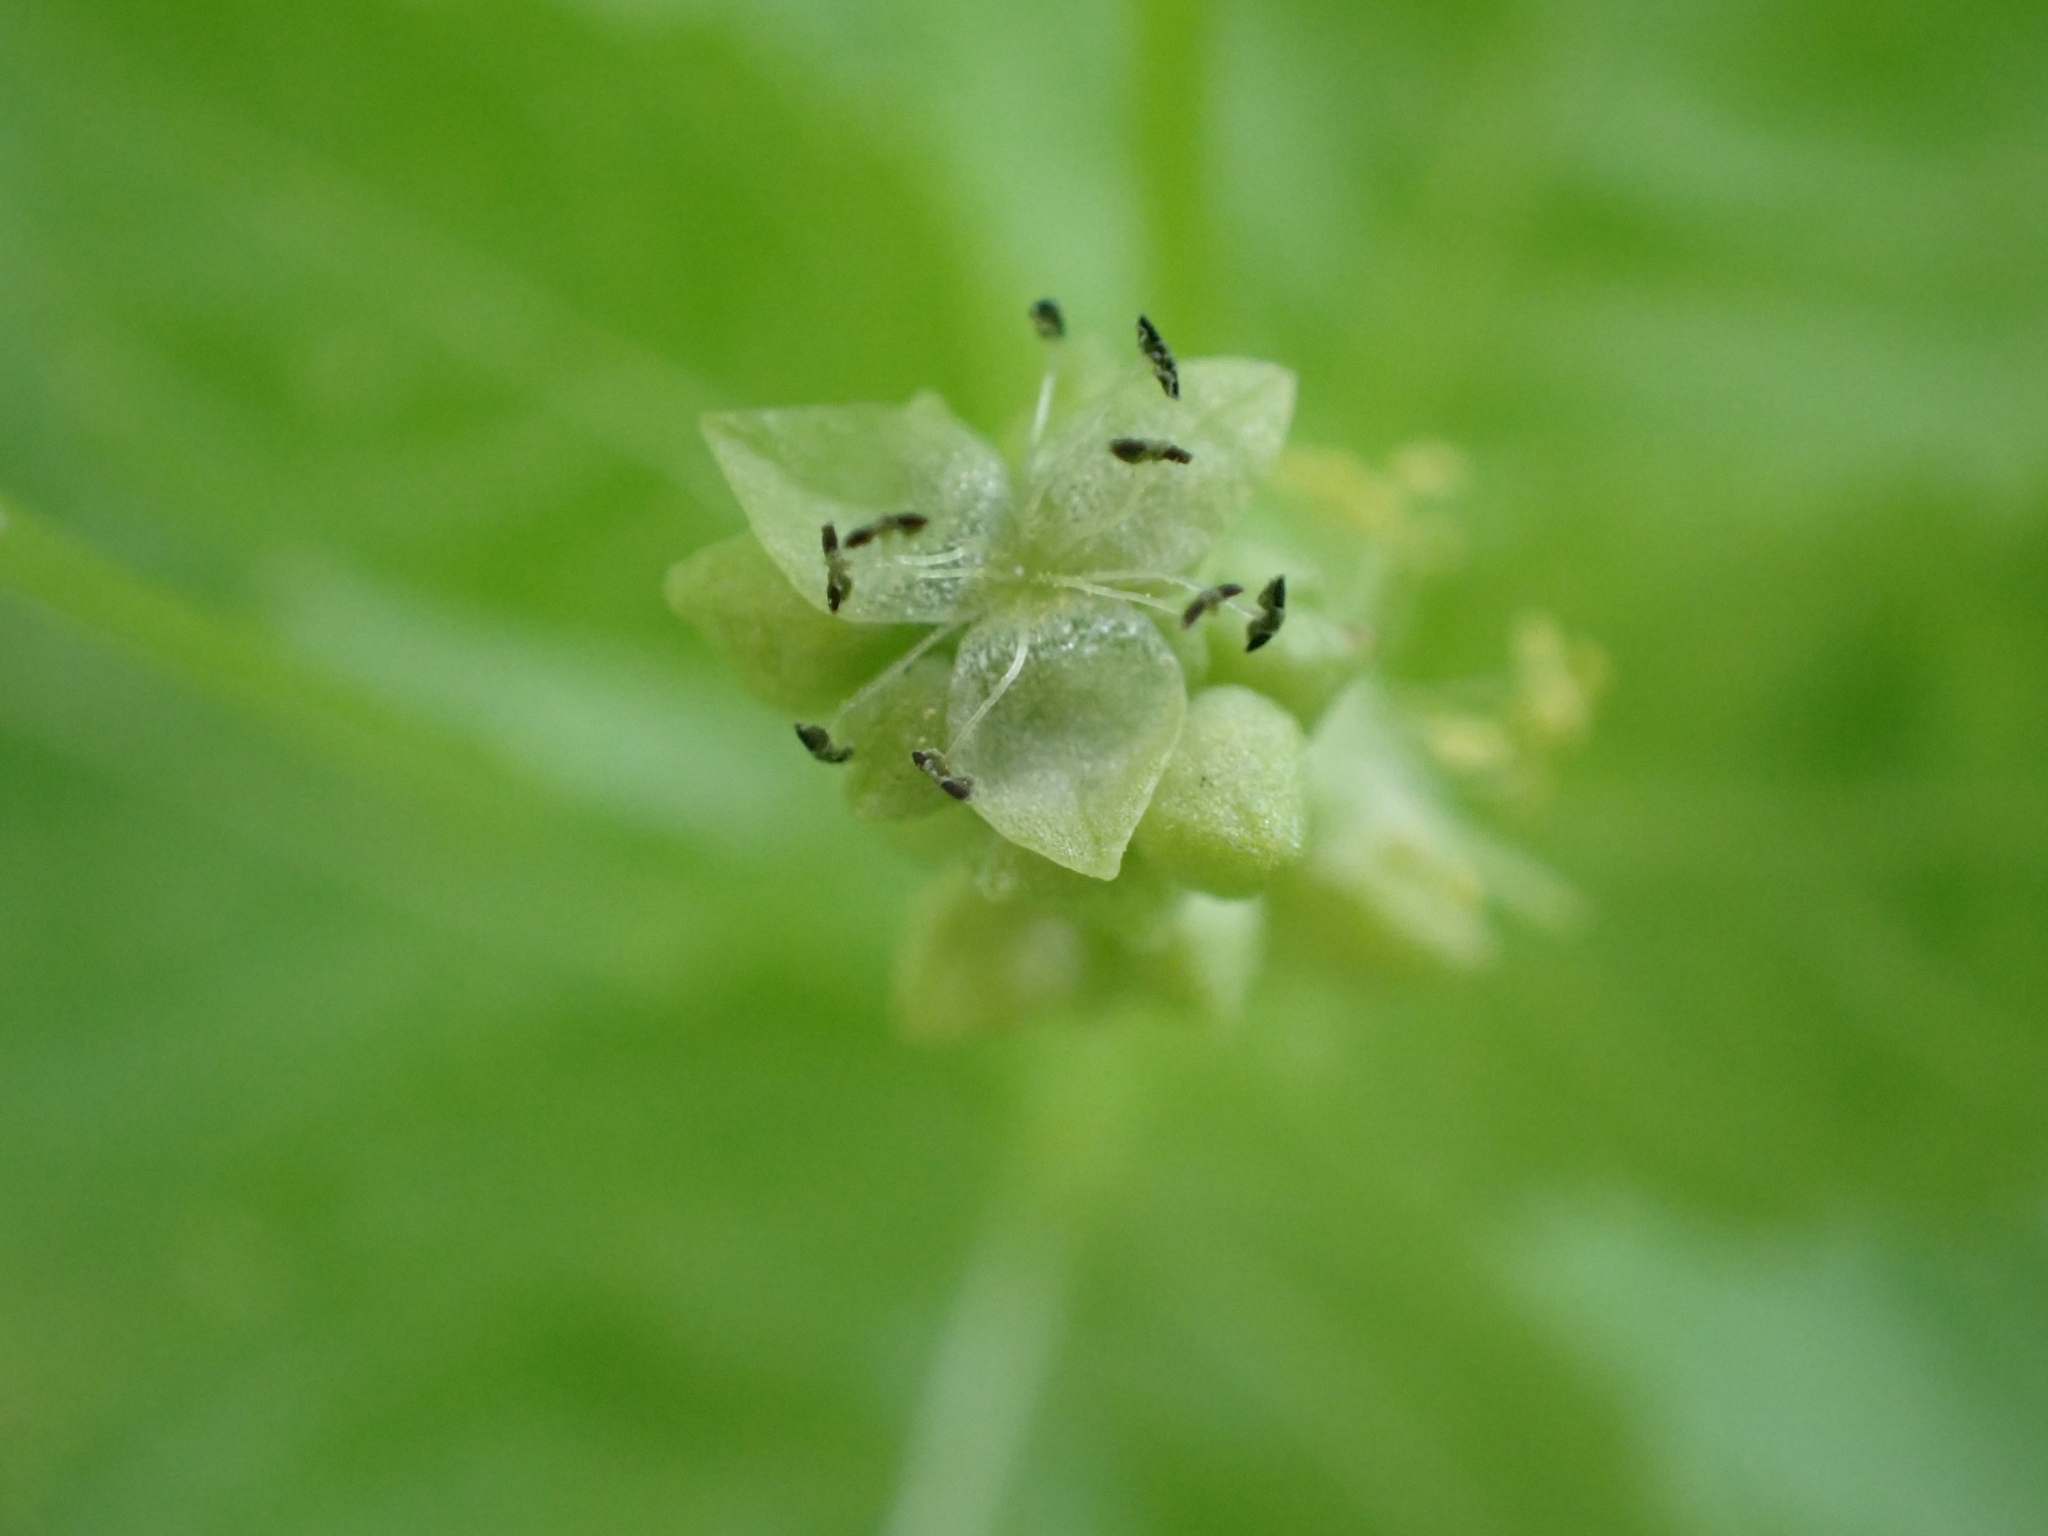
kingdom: Plantae
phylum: Tracheophyta
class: Magnoliopsida
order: Malpighiales
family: Euphorbiaceae
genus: Mercurialis
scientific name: Mercurialis annua
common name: Annual mercury
